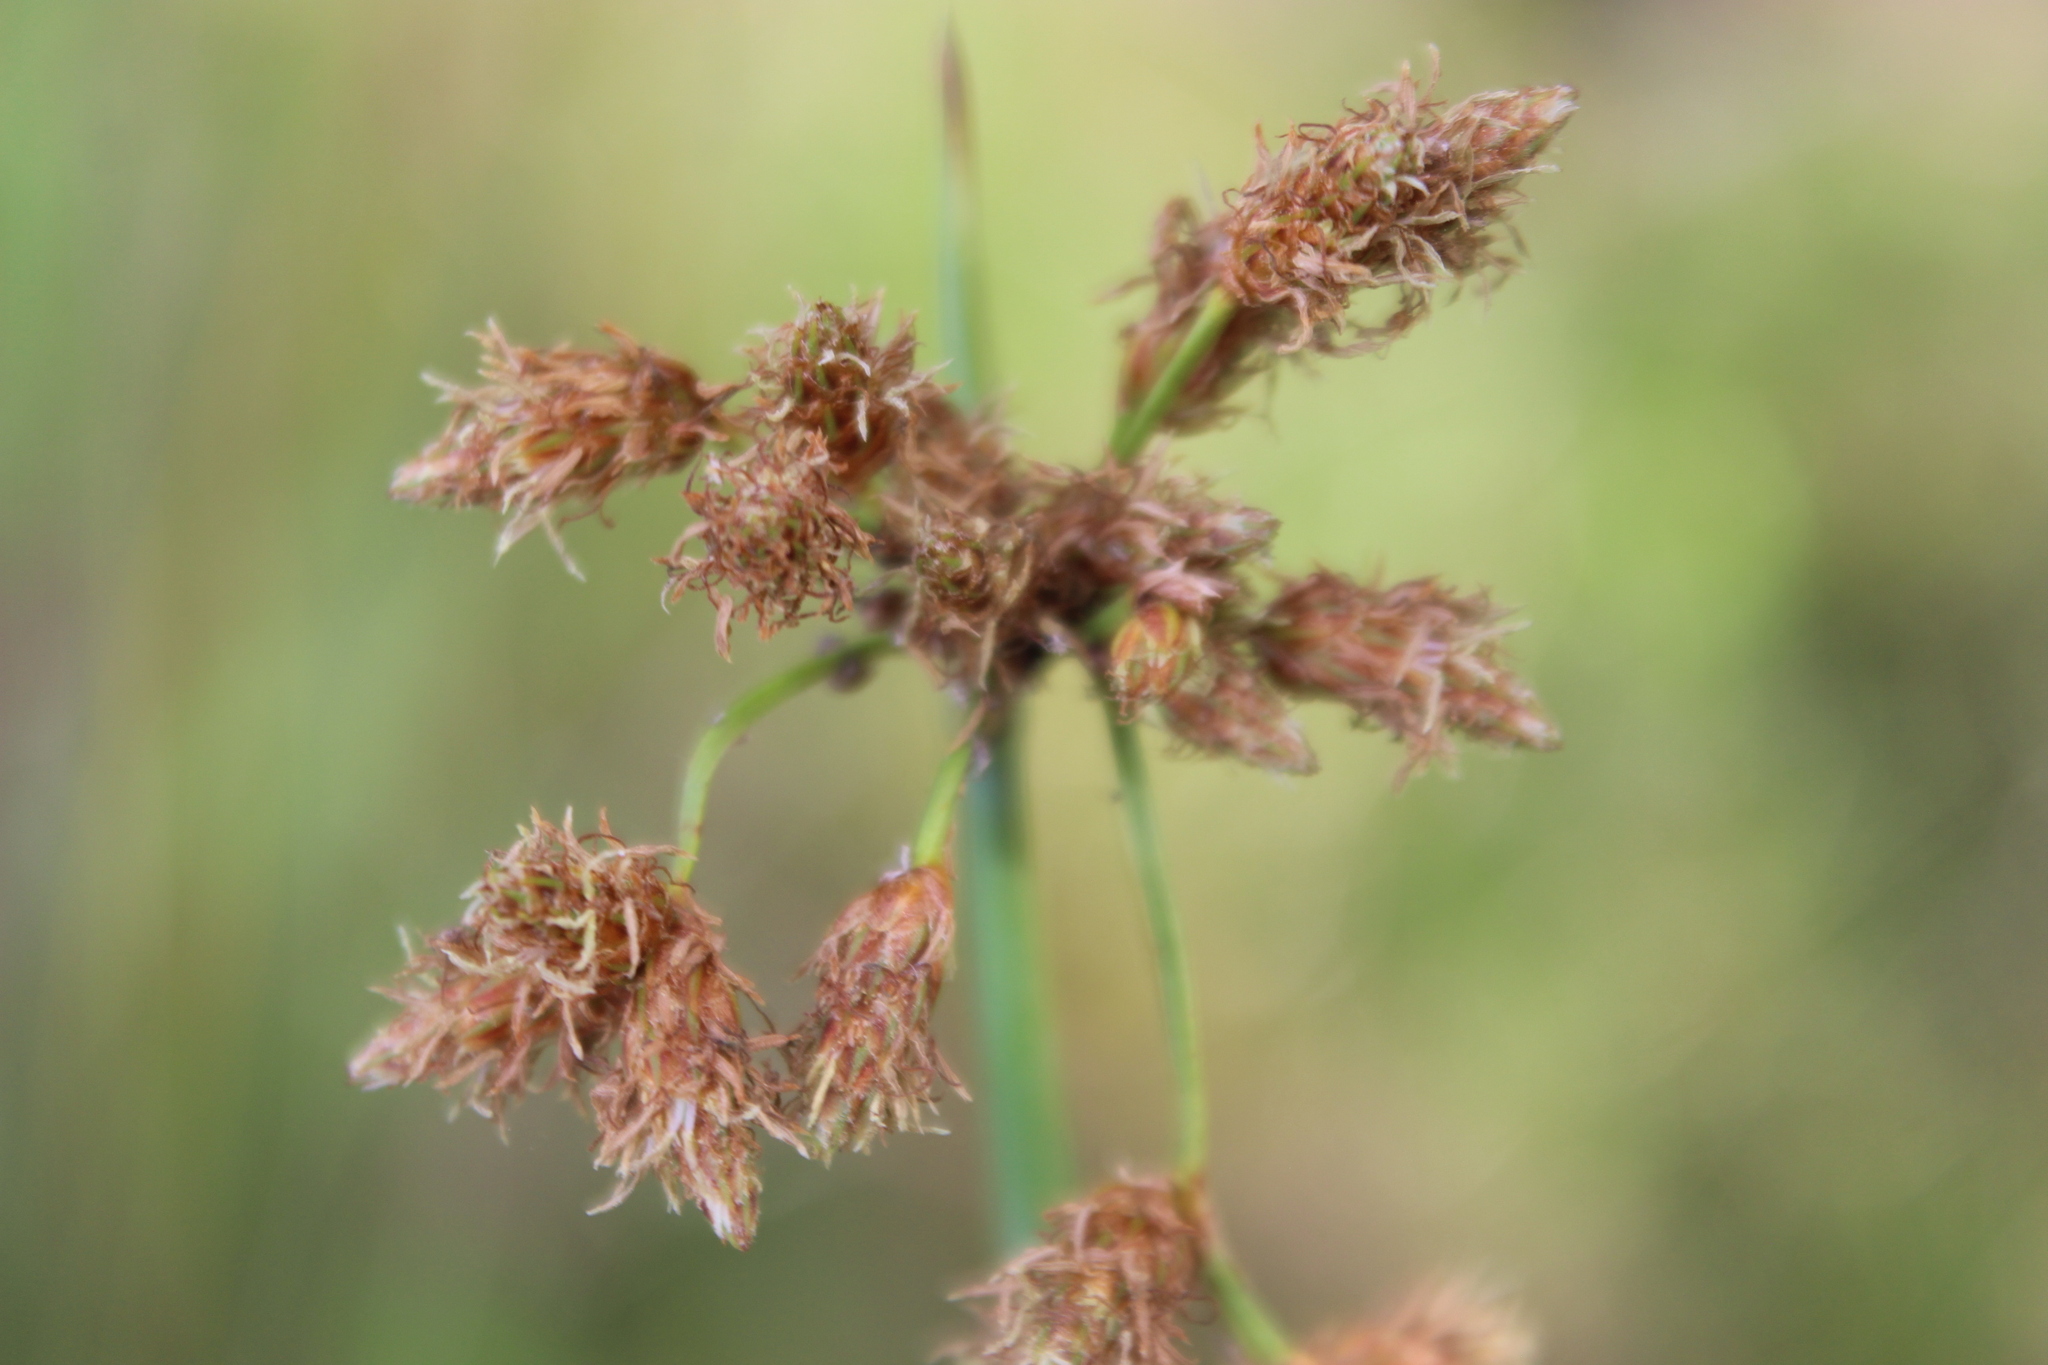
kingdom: Plantae
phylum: Tracheophyta
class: Liliopsida
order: Poales
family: Cyperaceae
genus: Schoenoplectus
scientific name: Schoenoplectus tabernaemontani
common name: Grey club-rush
